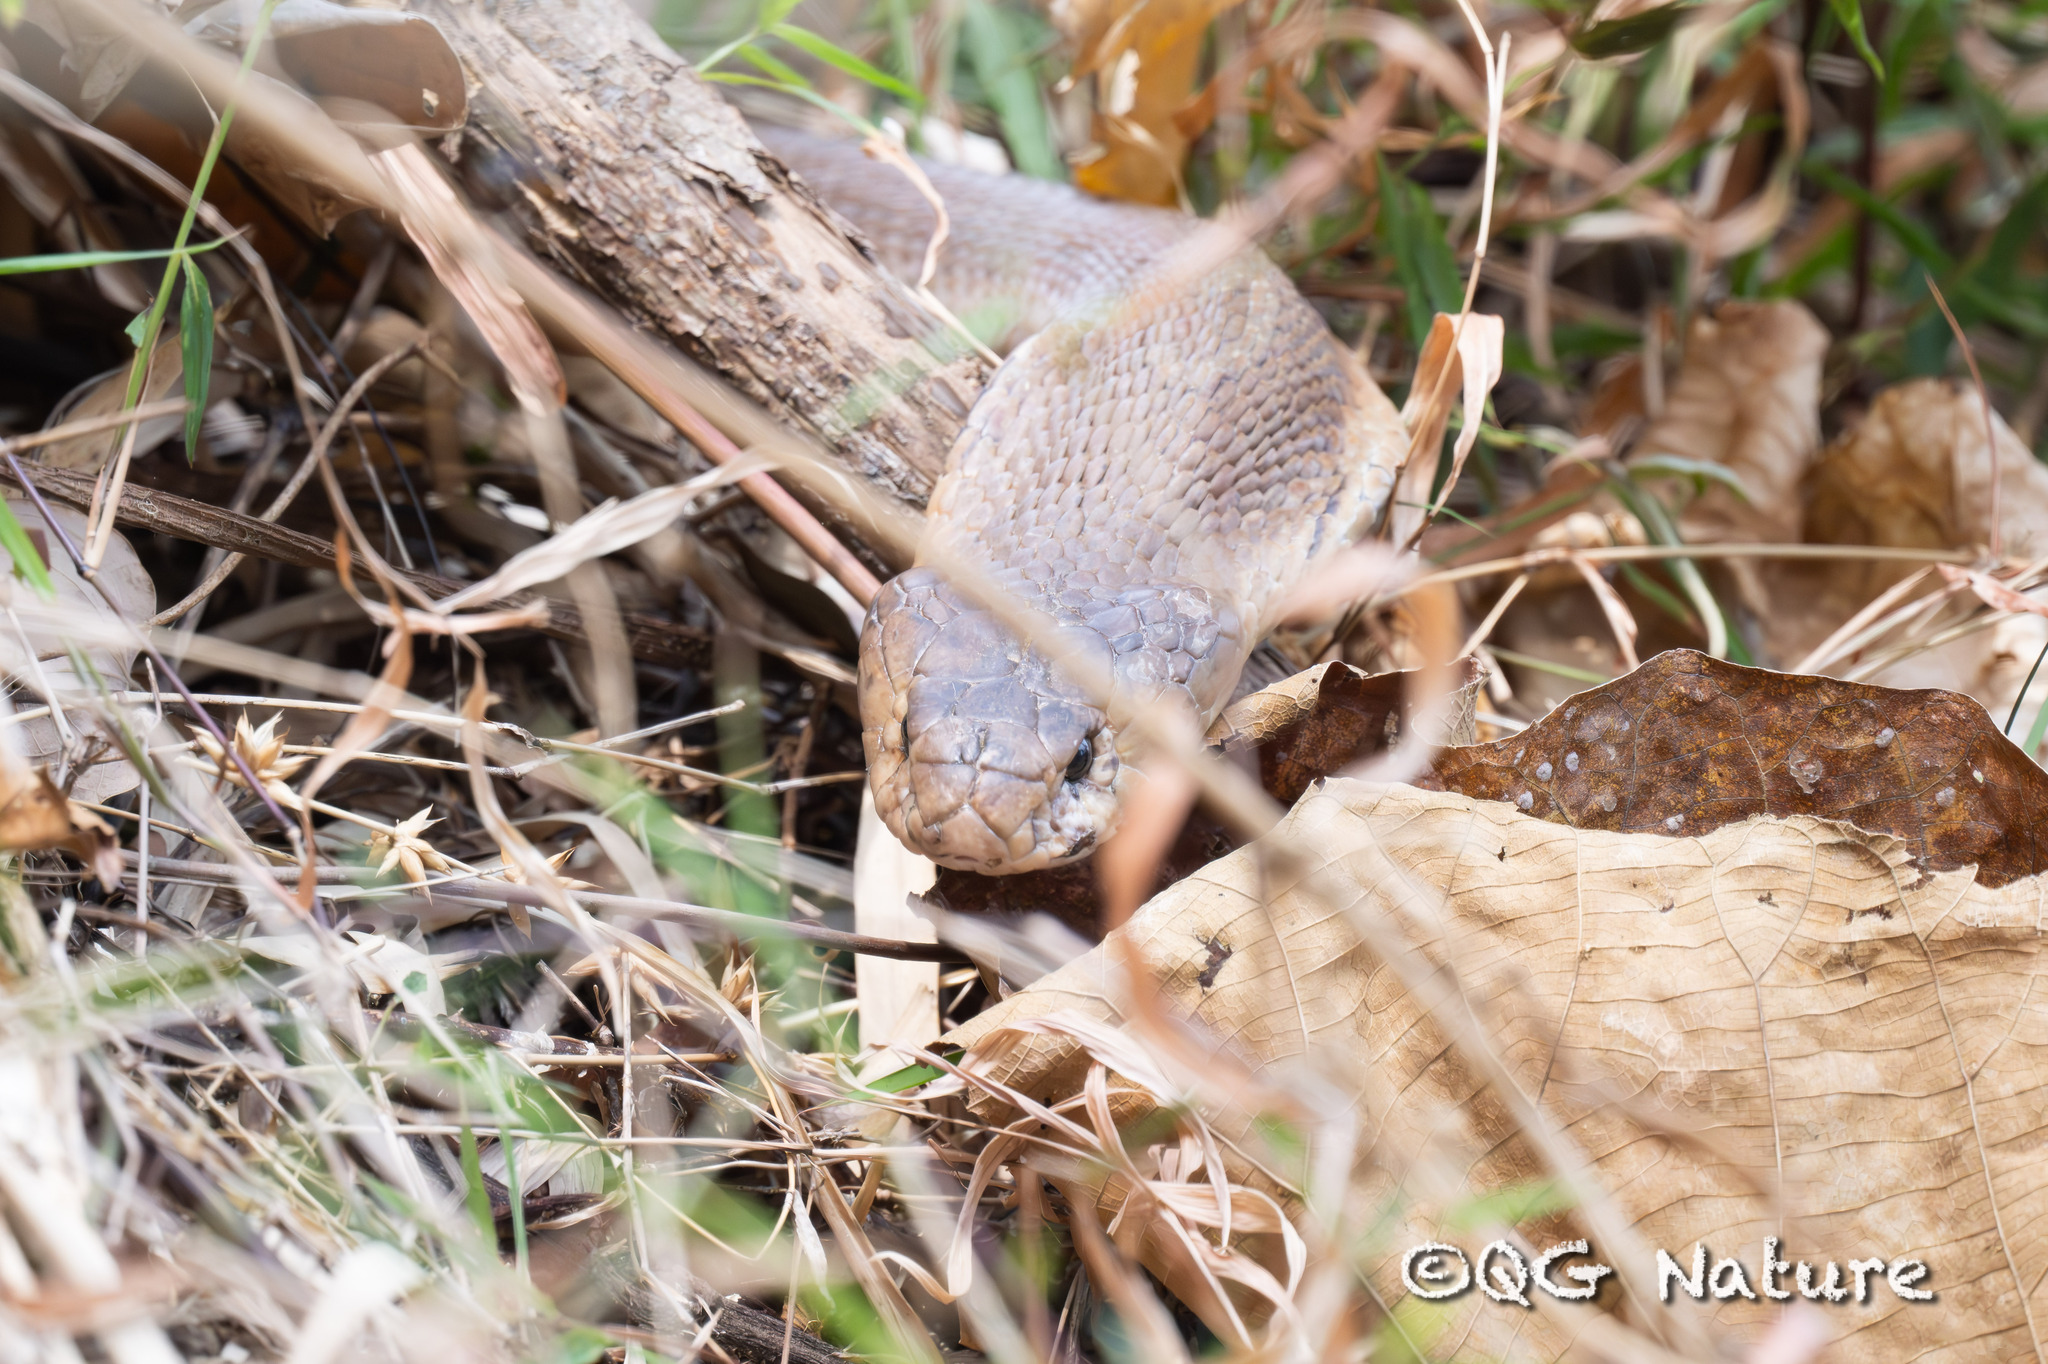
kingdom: Animalia
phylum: Chordata
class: Squamata
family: Elapidae
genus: Naja
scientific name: Naja
